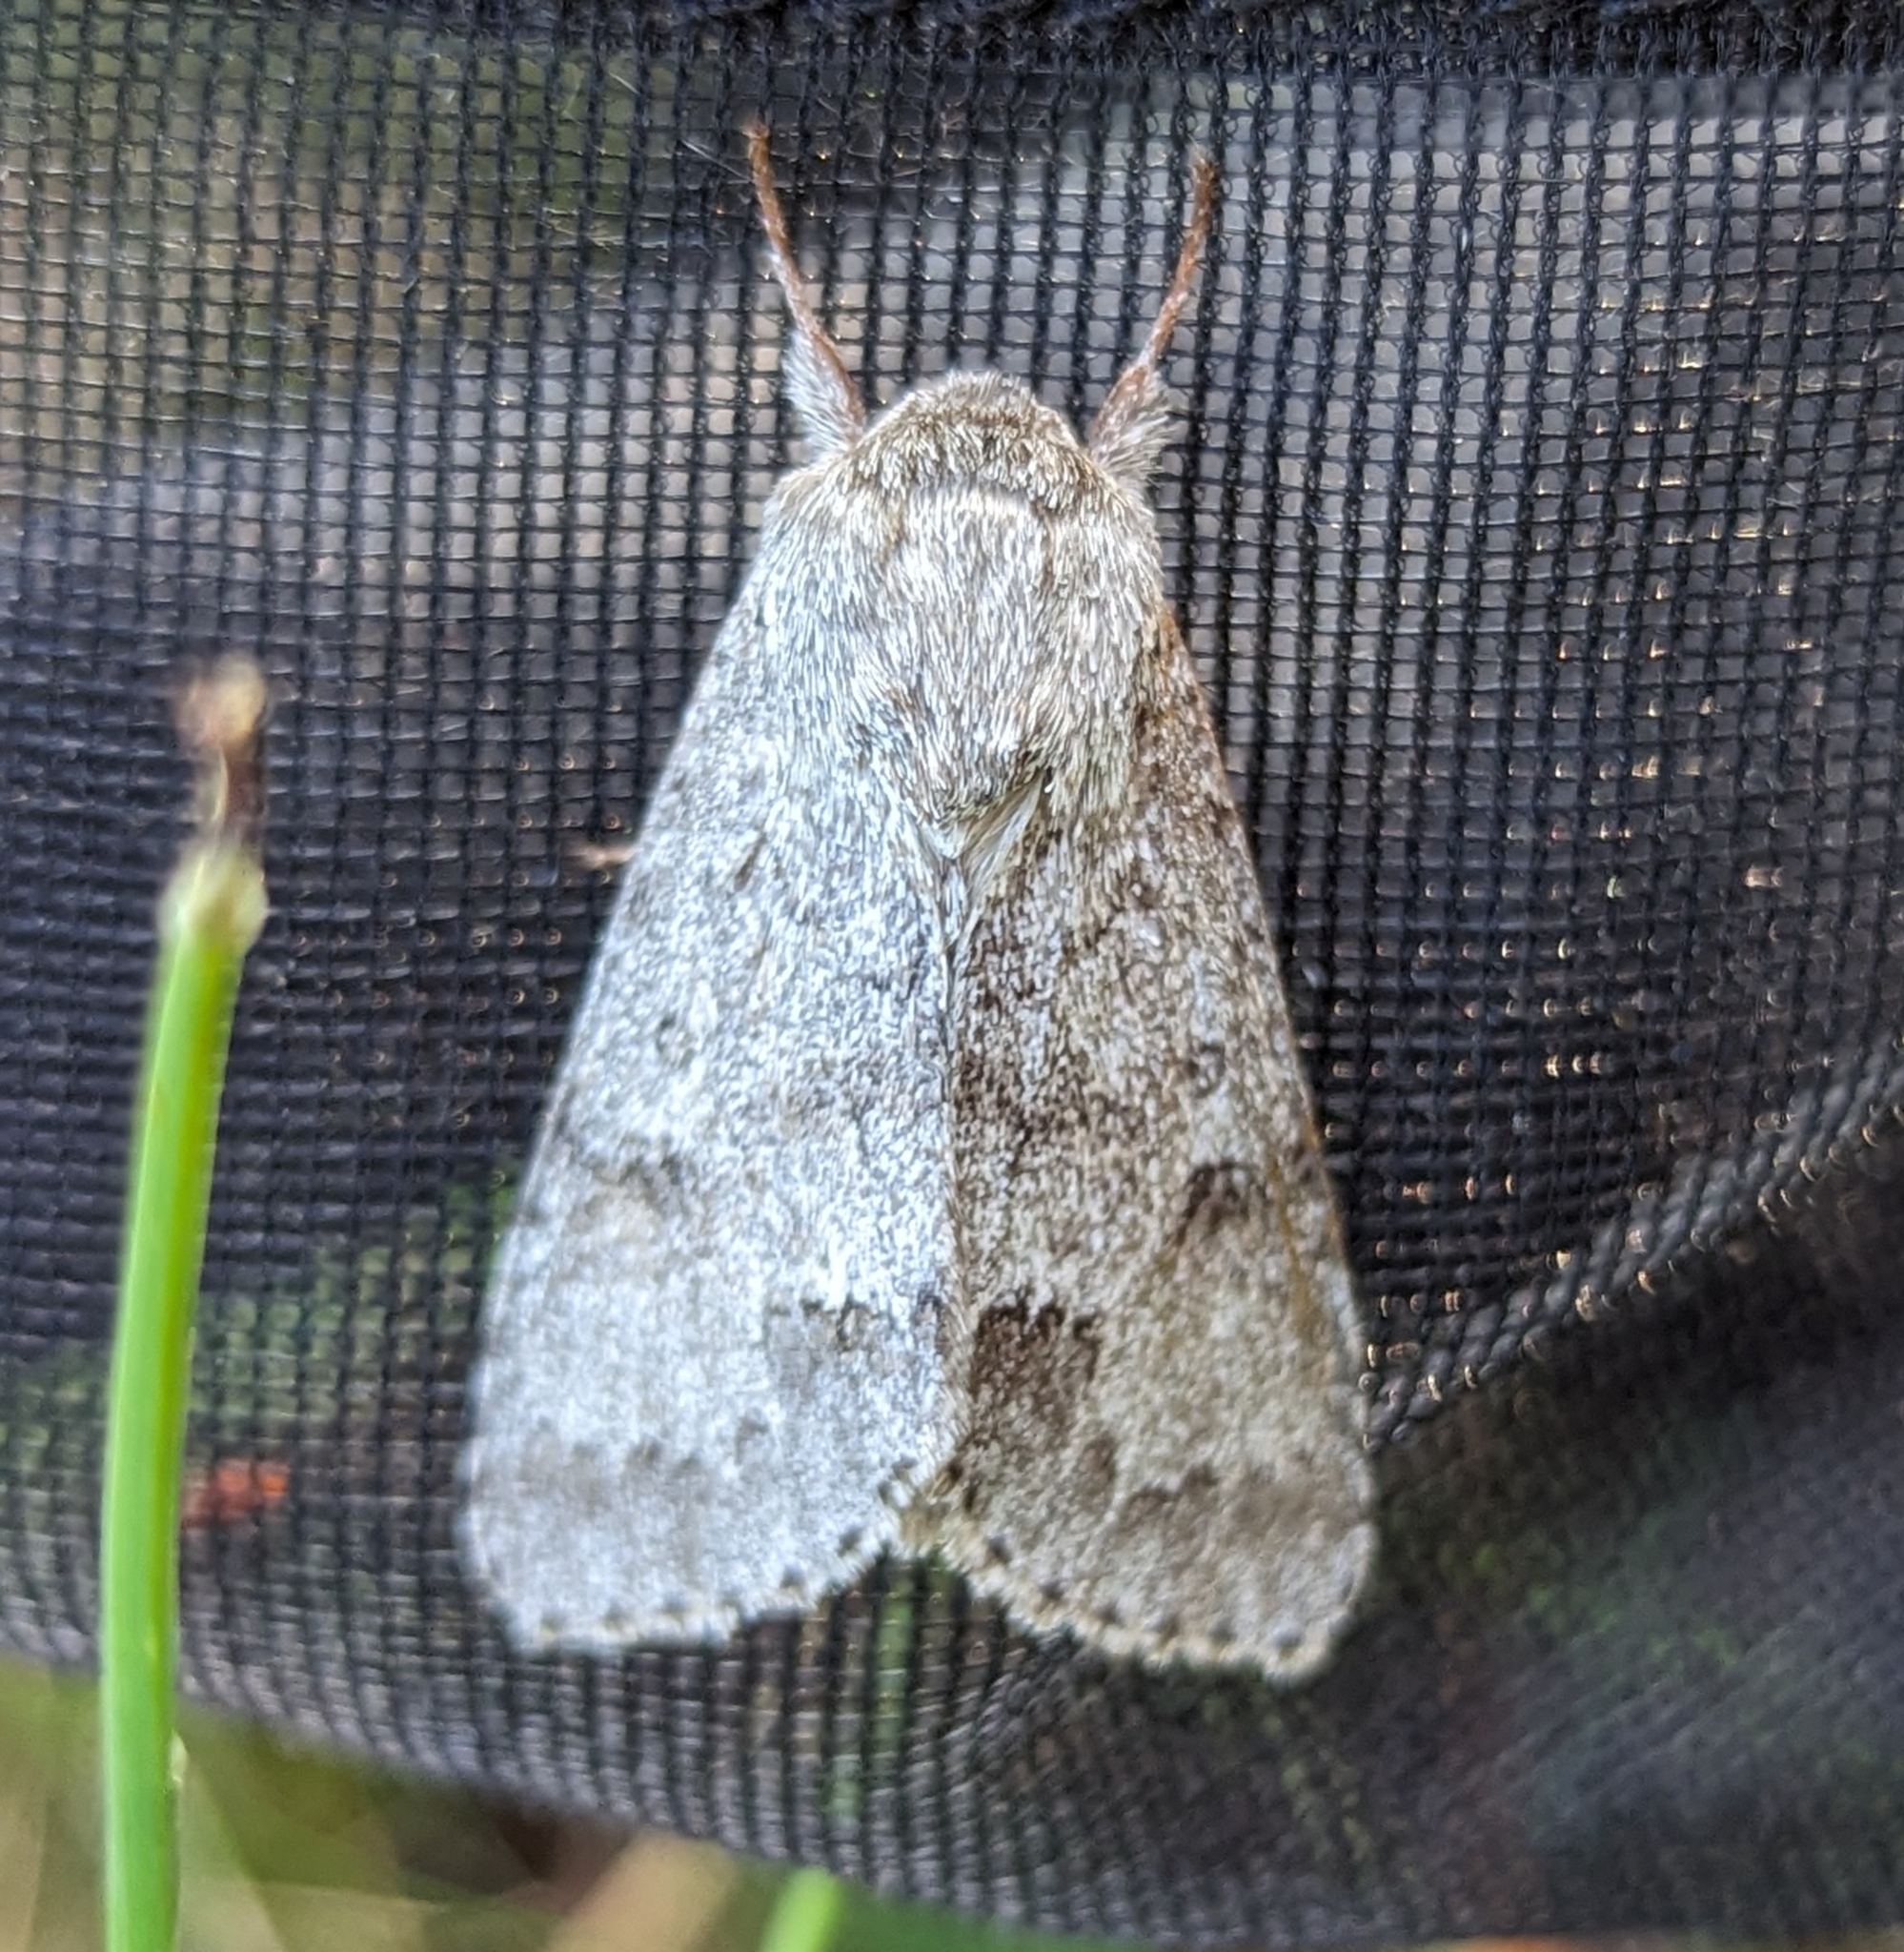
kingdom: Animalia
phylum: Arthropoda
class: Insecta
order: Lepidoptera
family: Noctuidae
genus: Acronicta
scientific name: Acronicta insita
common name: Large gray dagger
